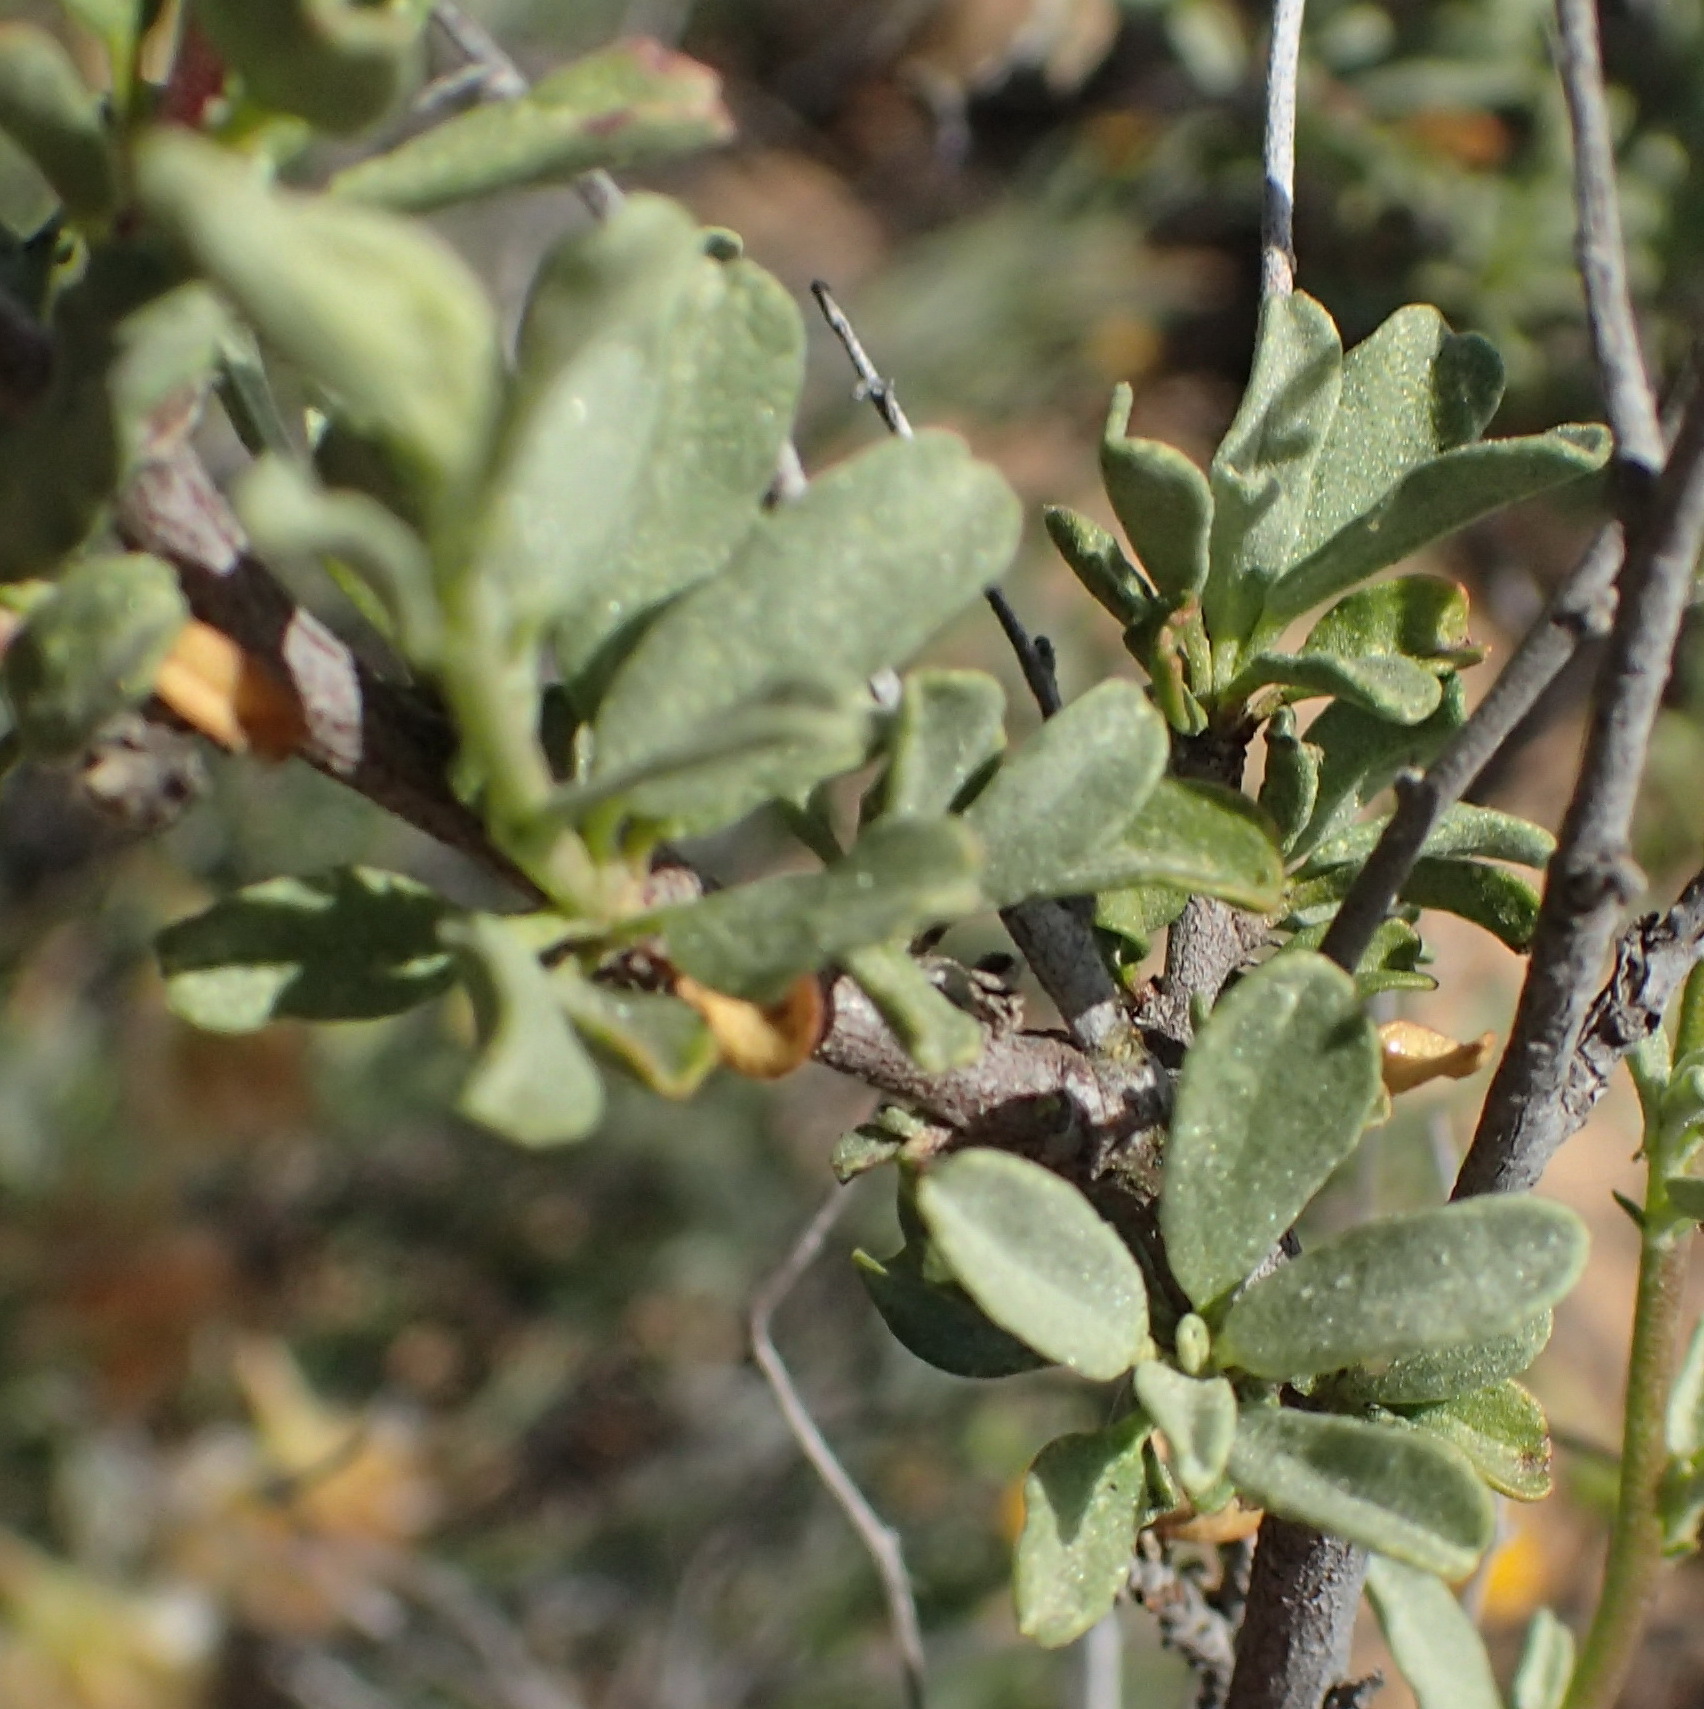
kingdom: Plantae
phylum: Tracheophyta
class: Magnoliopsida
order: Malvales
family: Malvaceae
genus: Hermannia
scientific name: Hermannia trifurca
